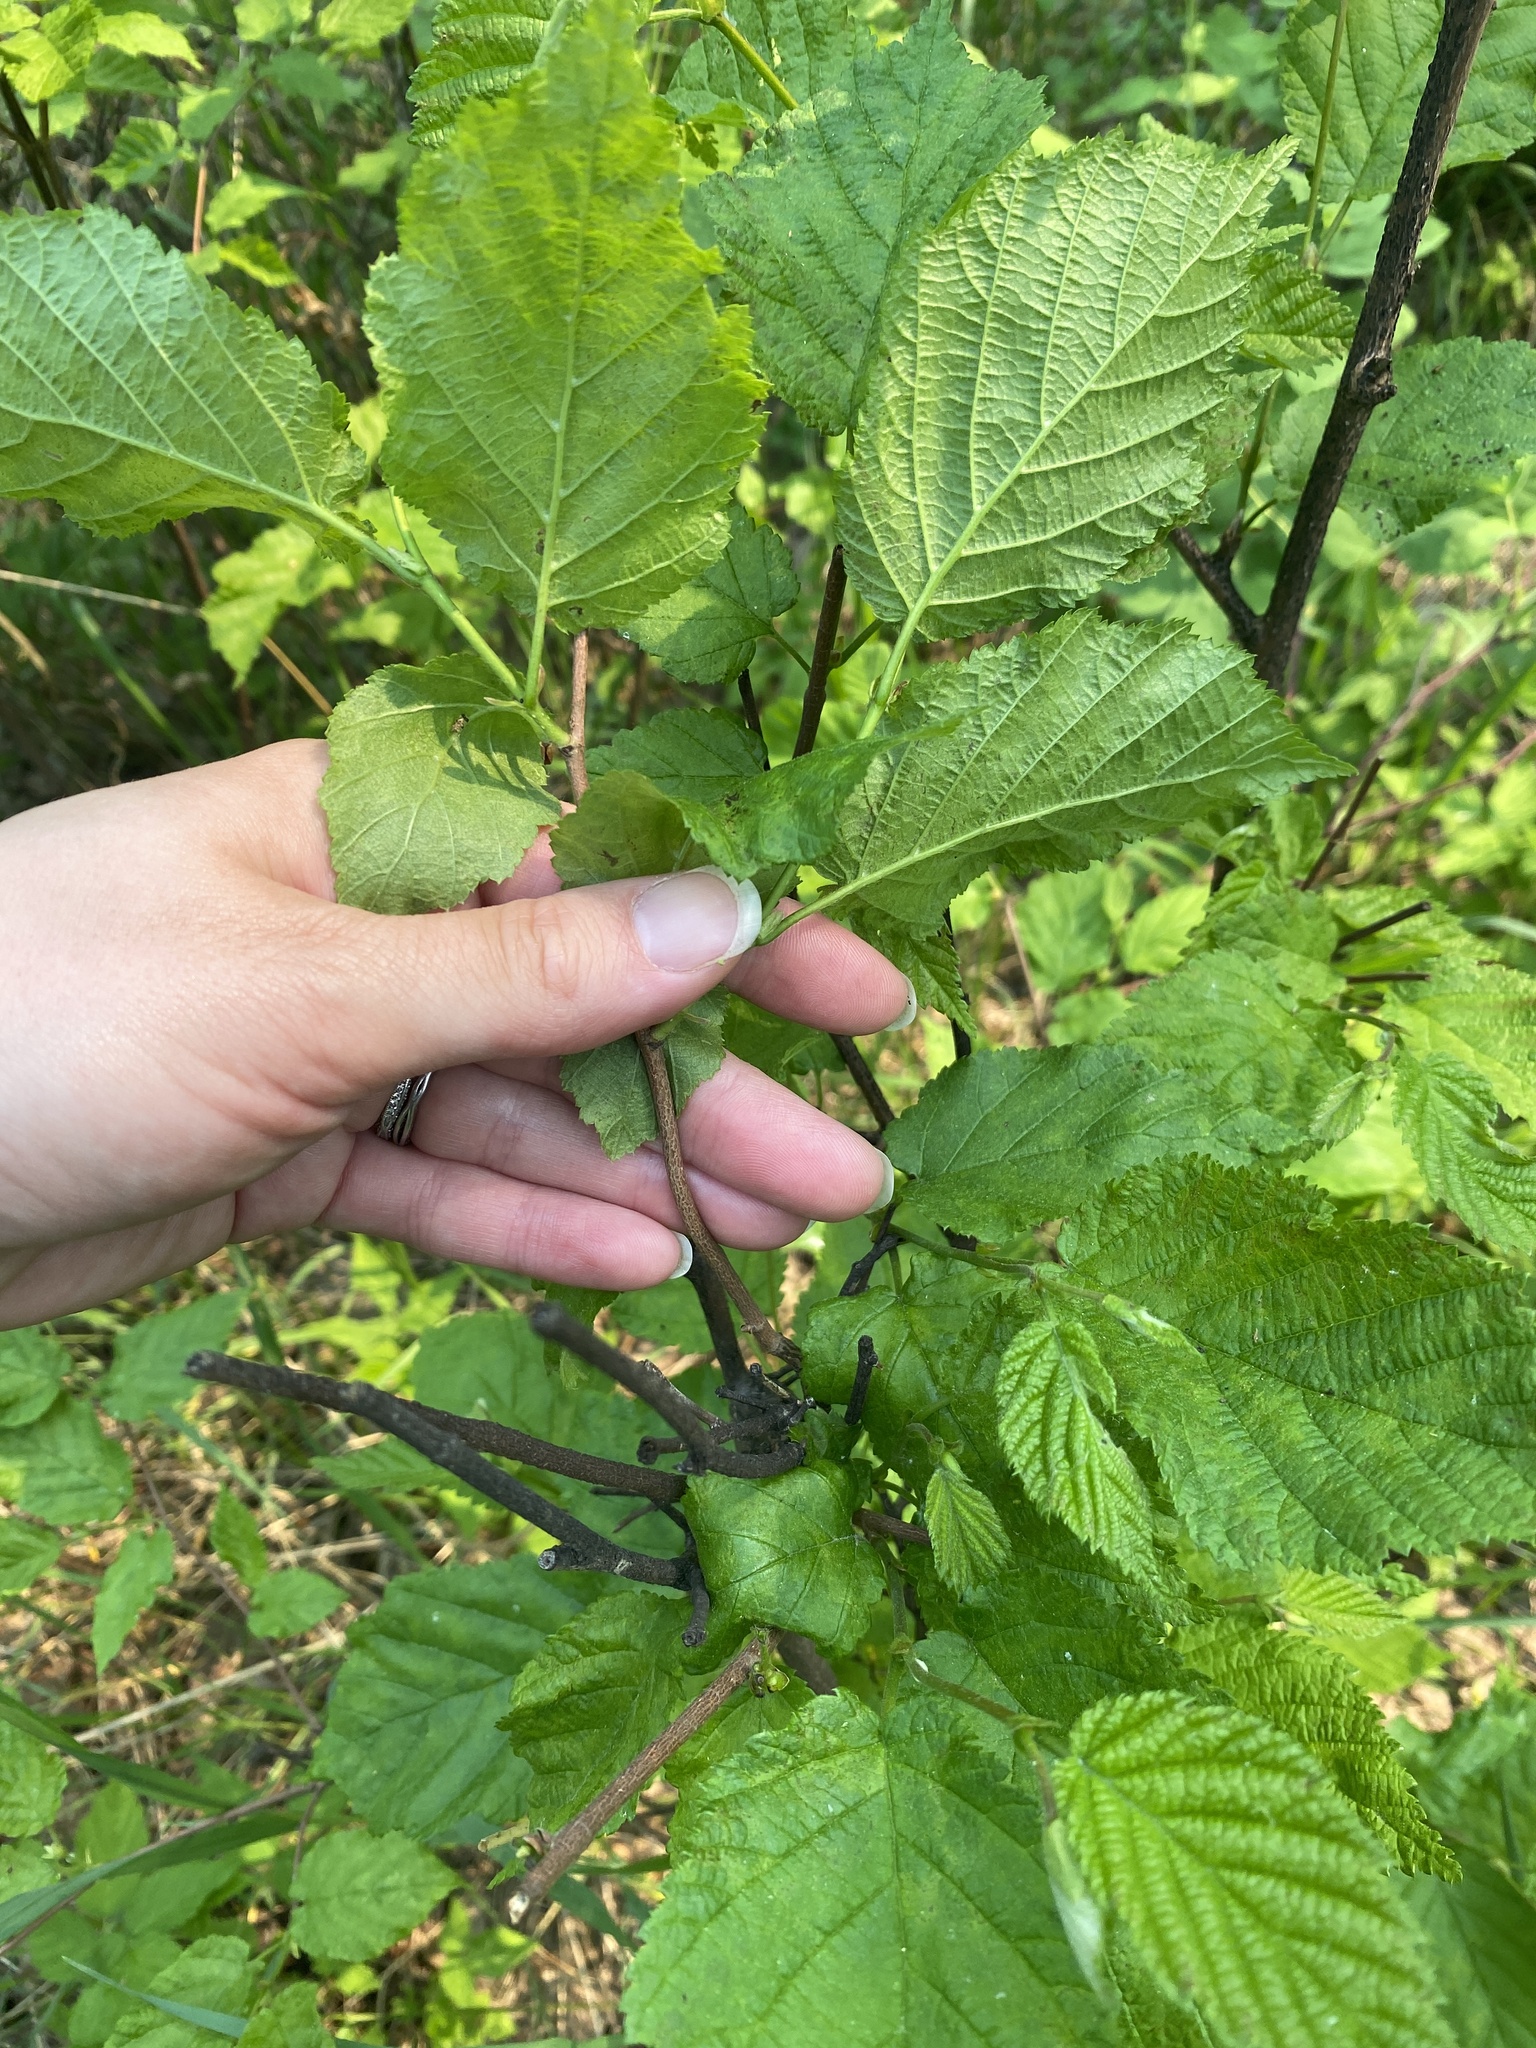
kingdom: Plantae
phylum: Tracheophyta
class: Magnoliopsida
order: Fagales
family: Betulaceae
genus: Corylus
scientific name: Corylus cornuta
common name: Beaked hazel
